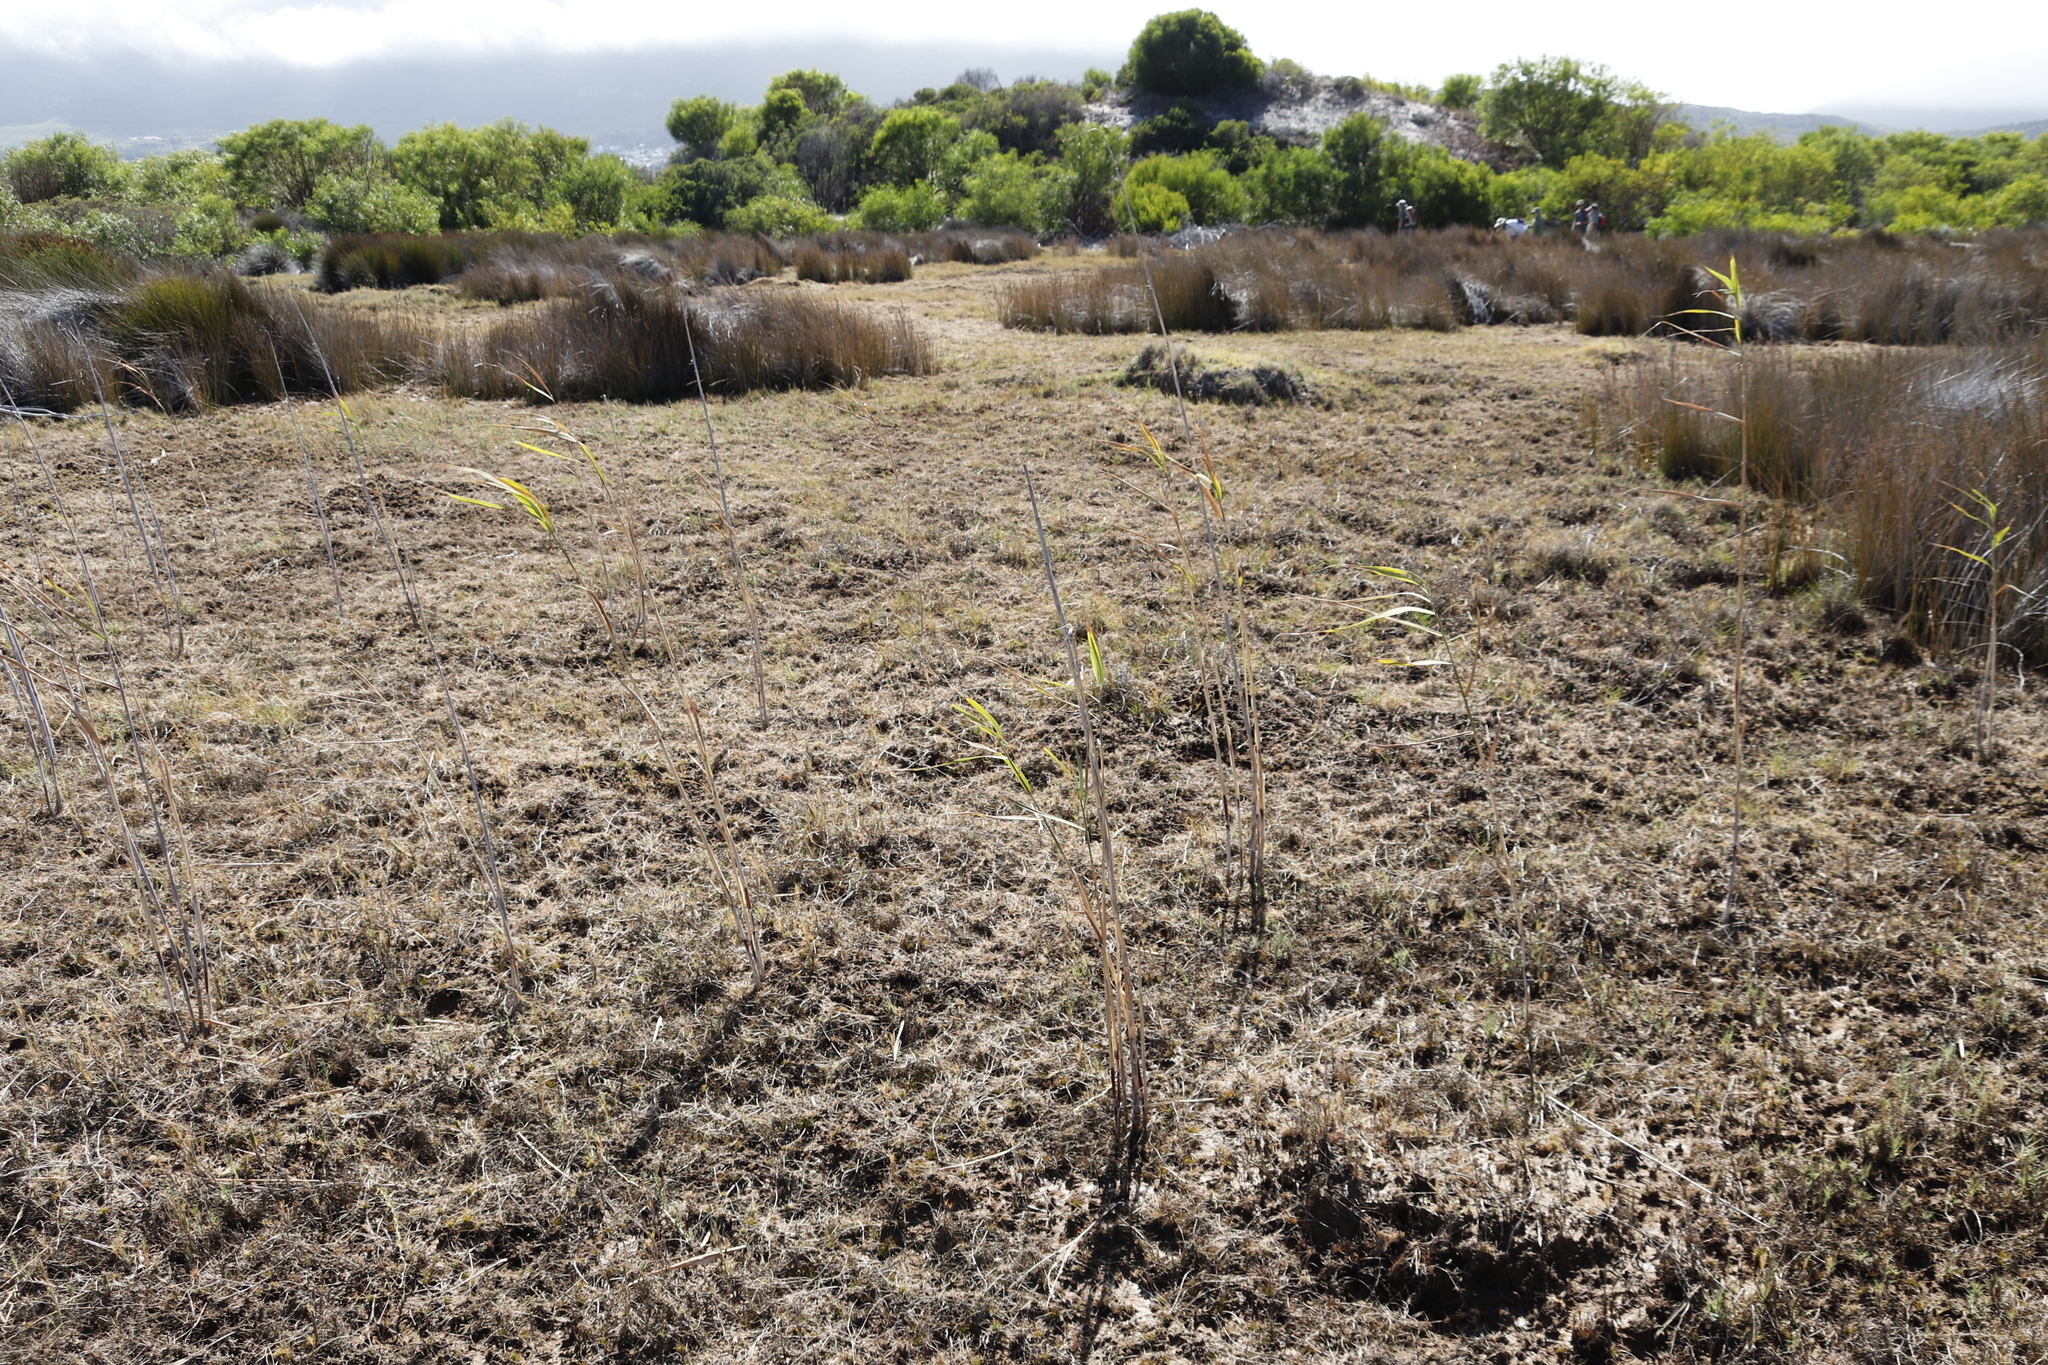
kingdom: Plantae
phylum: Tracheophyta
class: Liliopsida
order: Poales
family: Poaceae
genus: Cynodon
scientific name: Cynodon dactylon
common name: Bermuda grass
